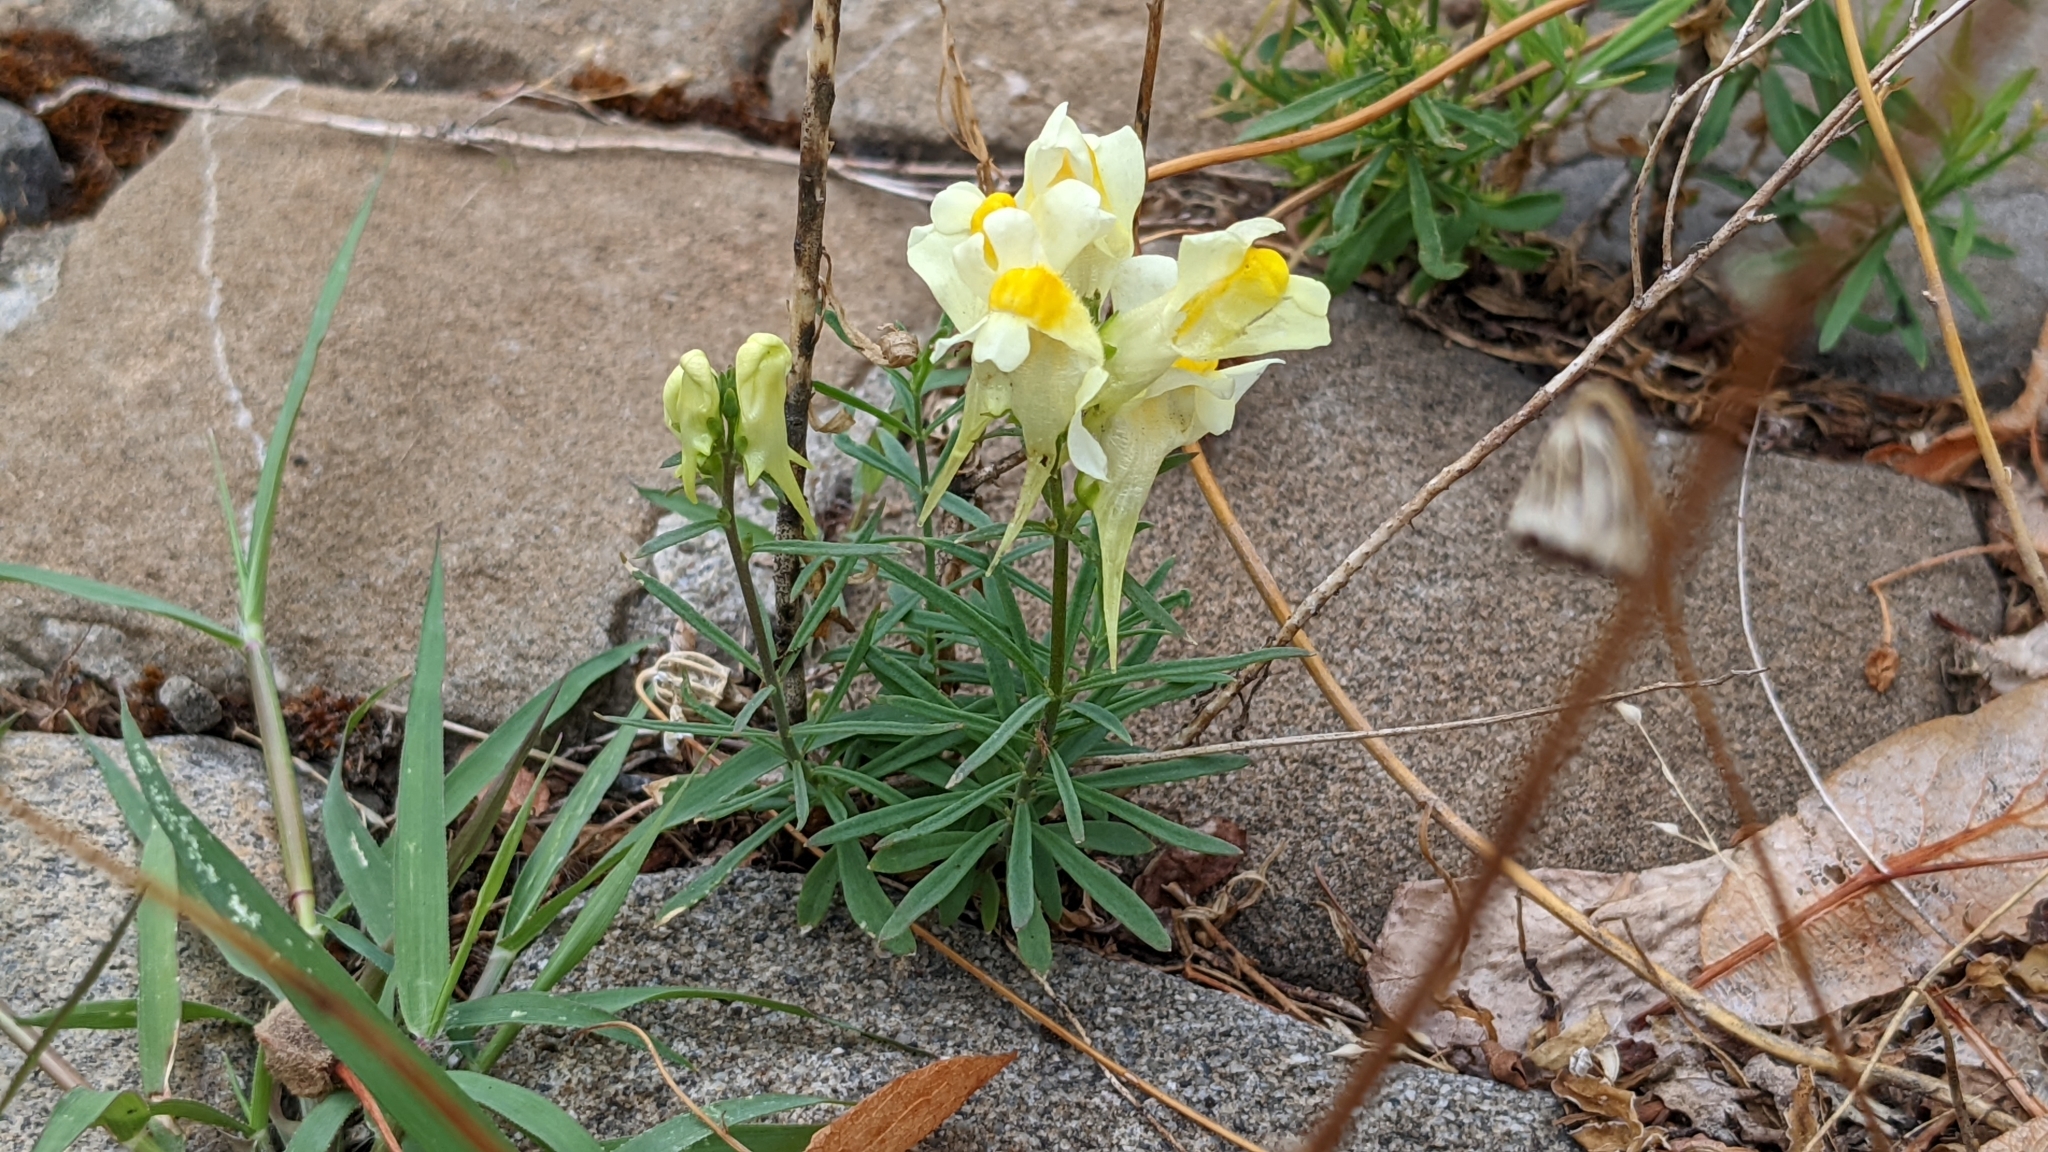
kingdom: Plantae
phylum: Tracheophyta
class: Magnoliopsida
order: Lamiales
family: Plantaginaceae
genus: Linaria
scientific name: Linaria vulgaris
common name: Butter and eggs
